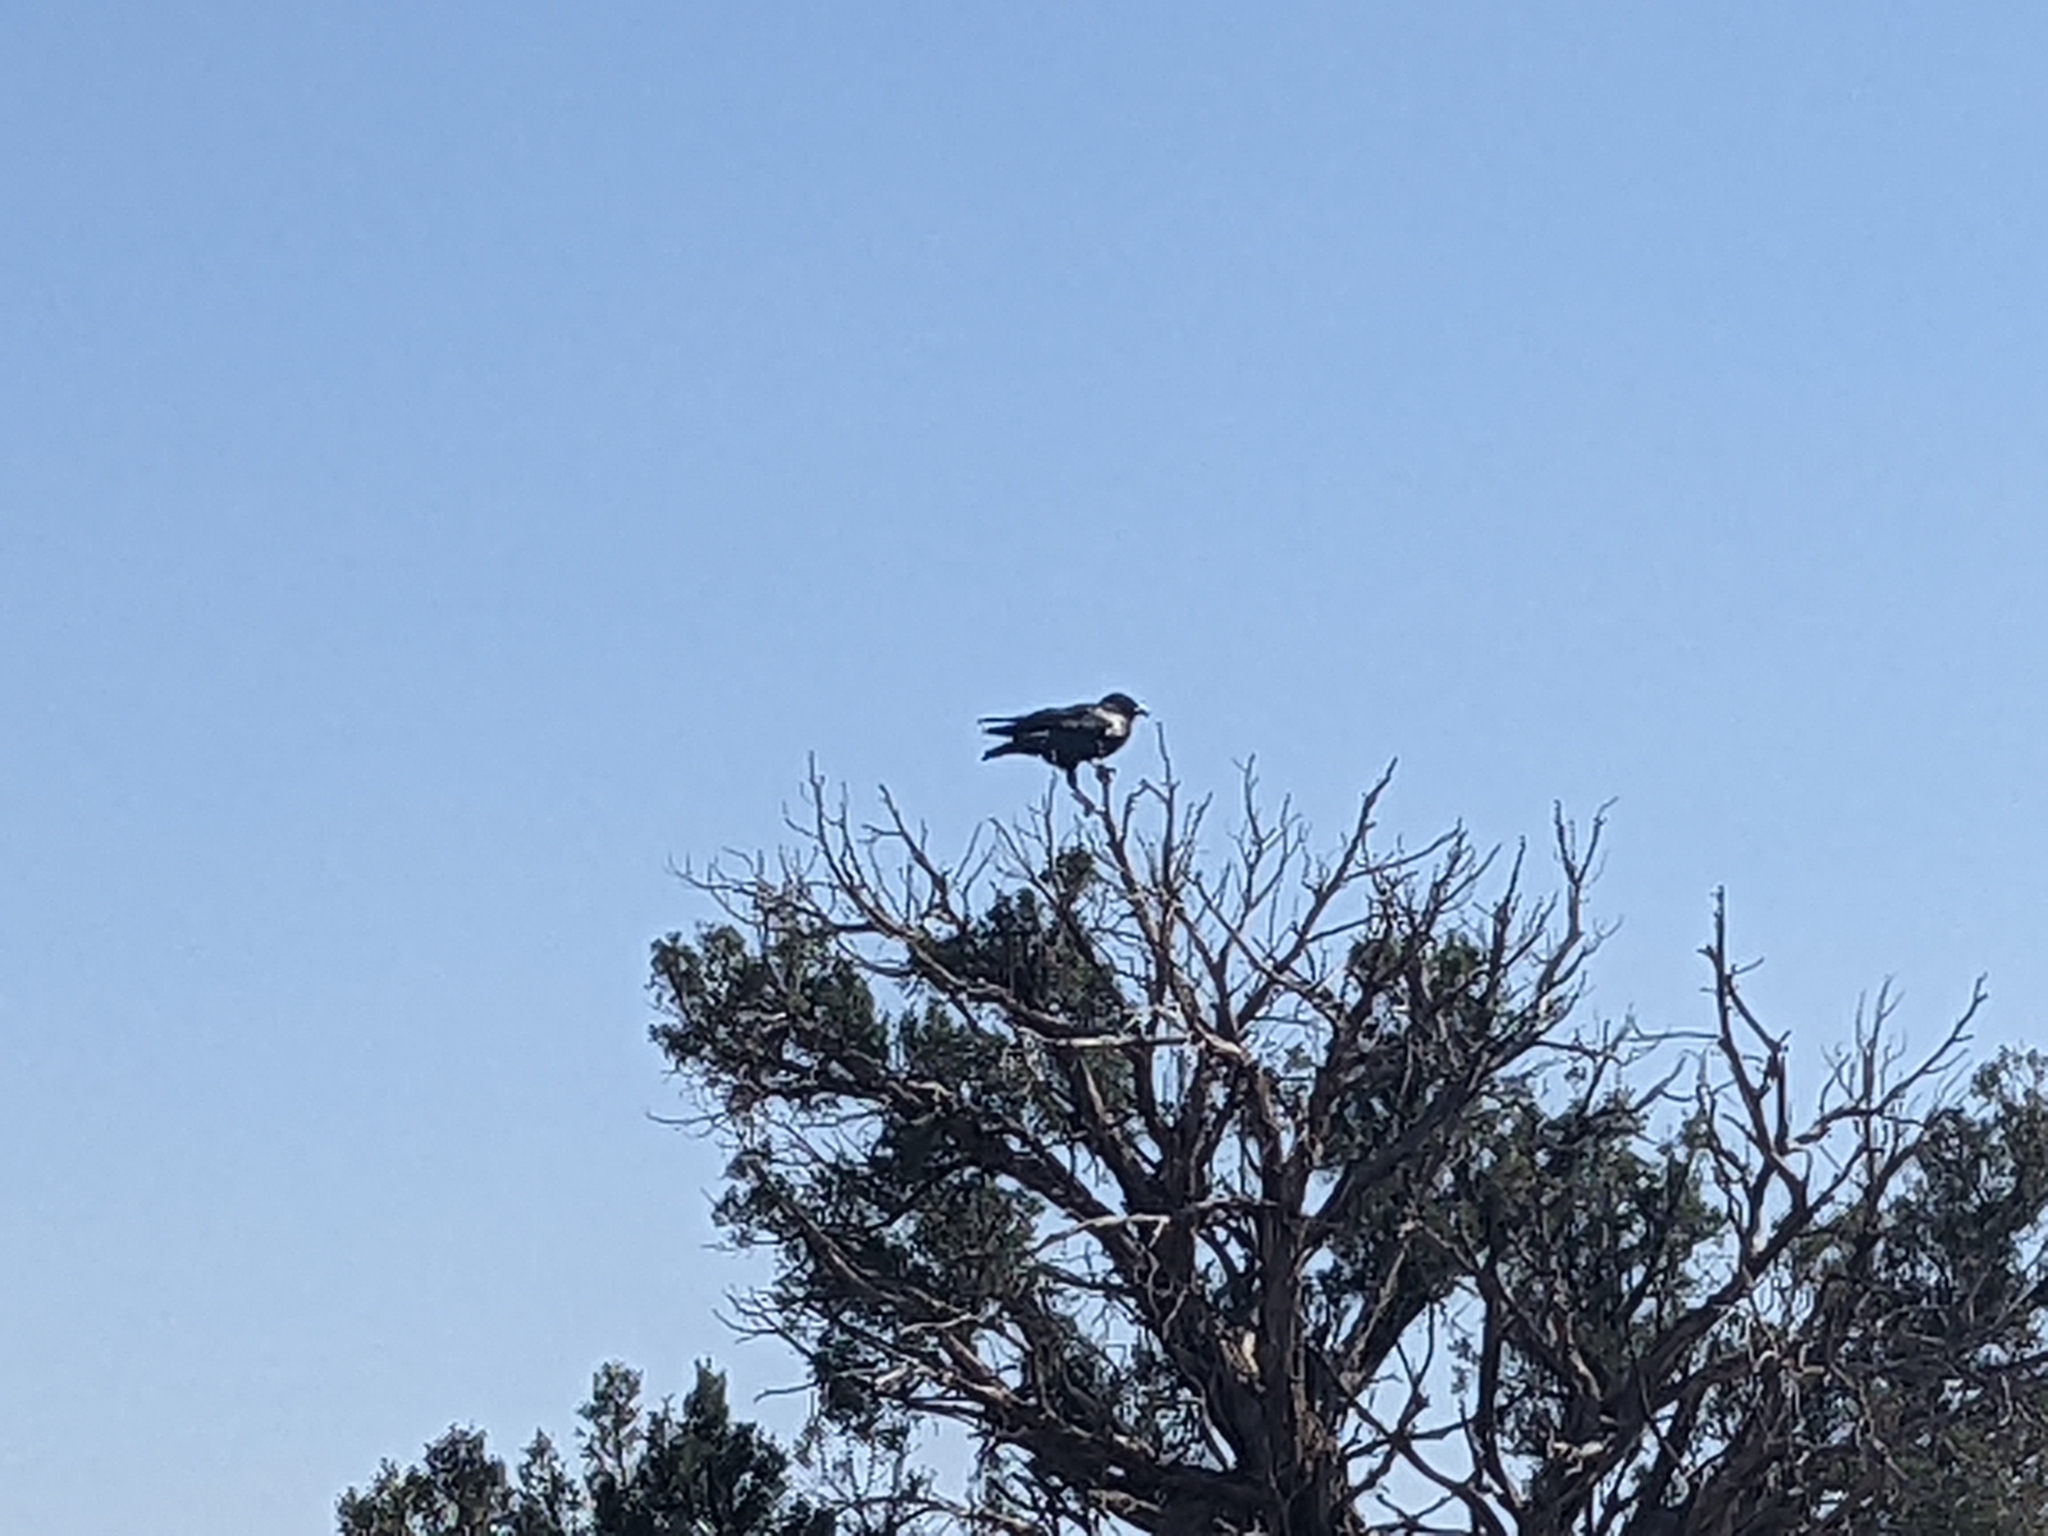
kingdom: Animalia
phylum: Chordata
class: Aves
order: Passeriformes
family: Corvidae
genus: Corvus
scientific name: Corvus corax
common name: Common raven
